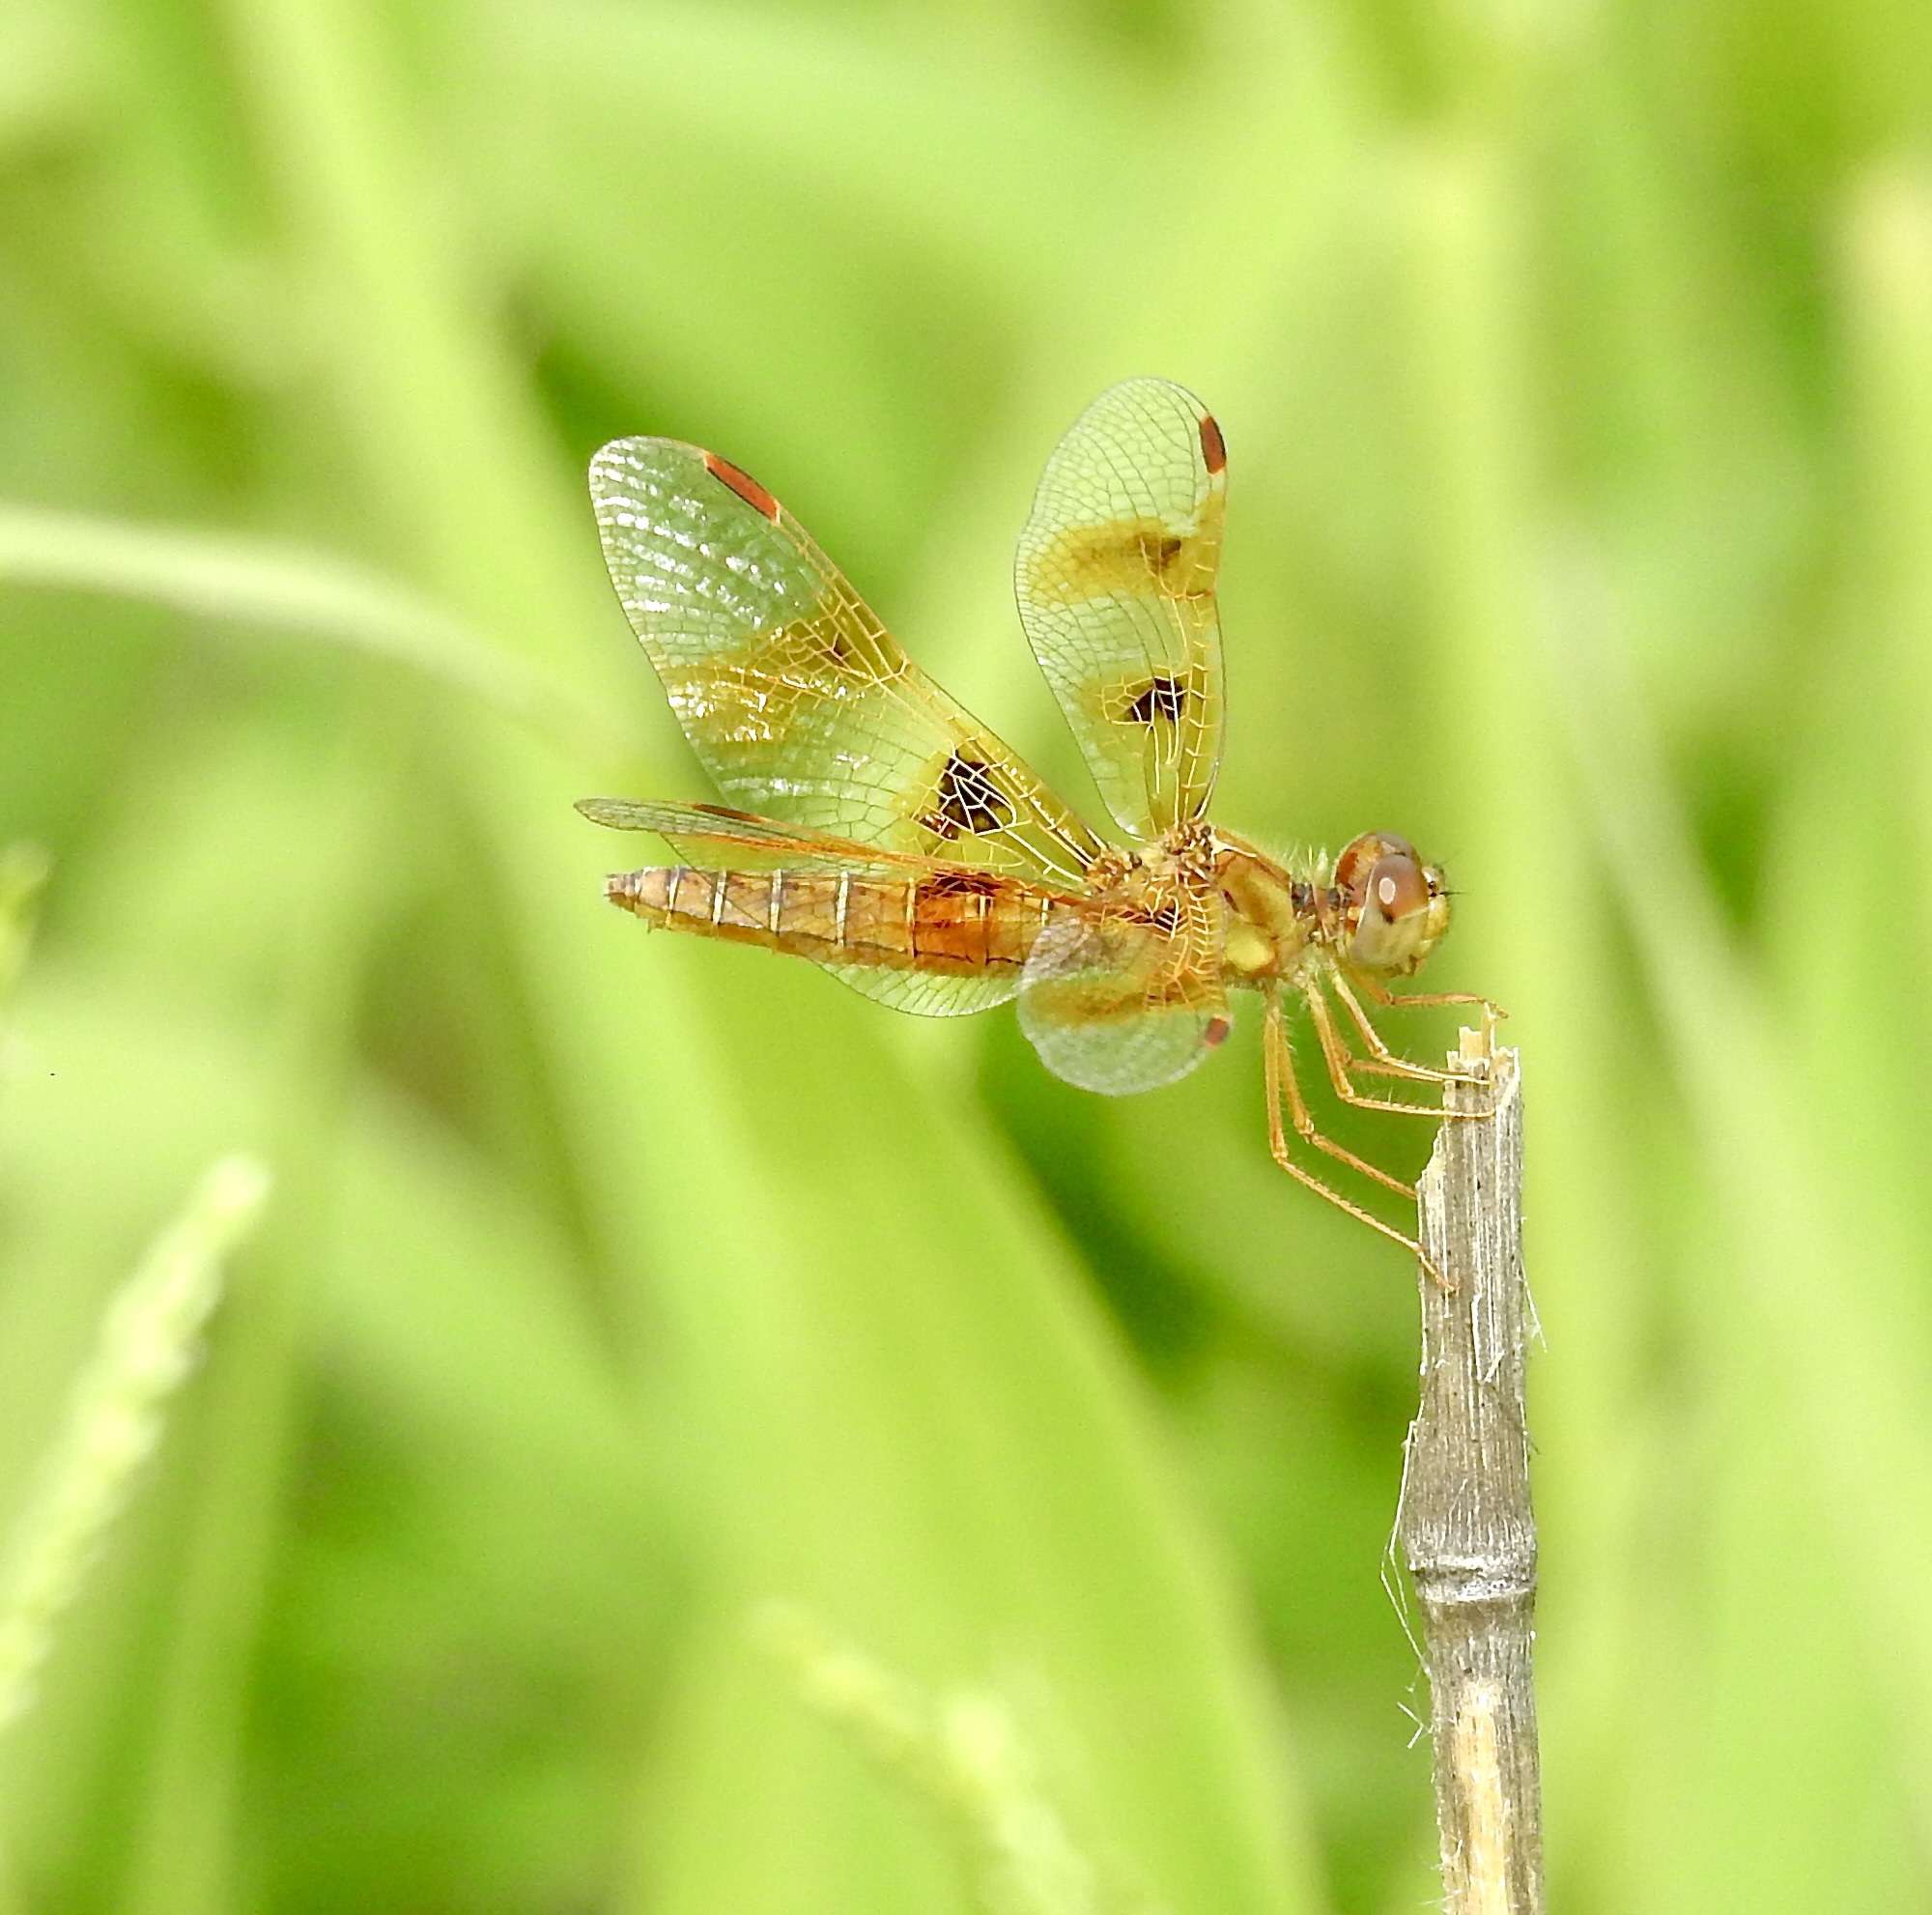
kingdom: Animalia
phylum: Arthropoda
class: Insecta
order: Odonata
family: Libellulidae
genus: Perithemis
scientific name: Perithemis intensa
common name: Mexican amberwing
